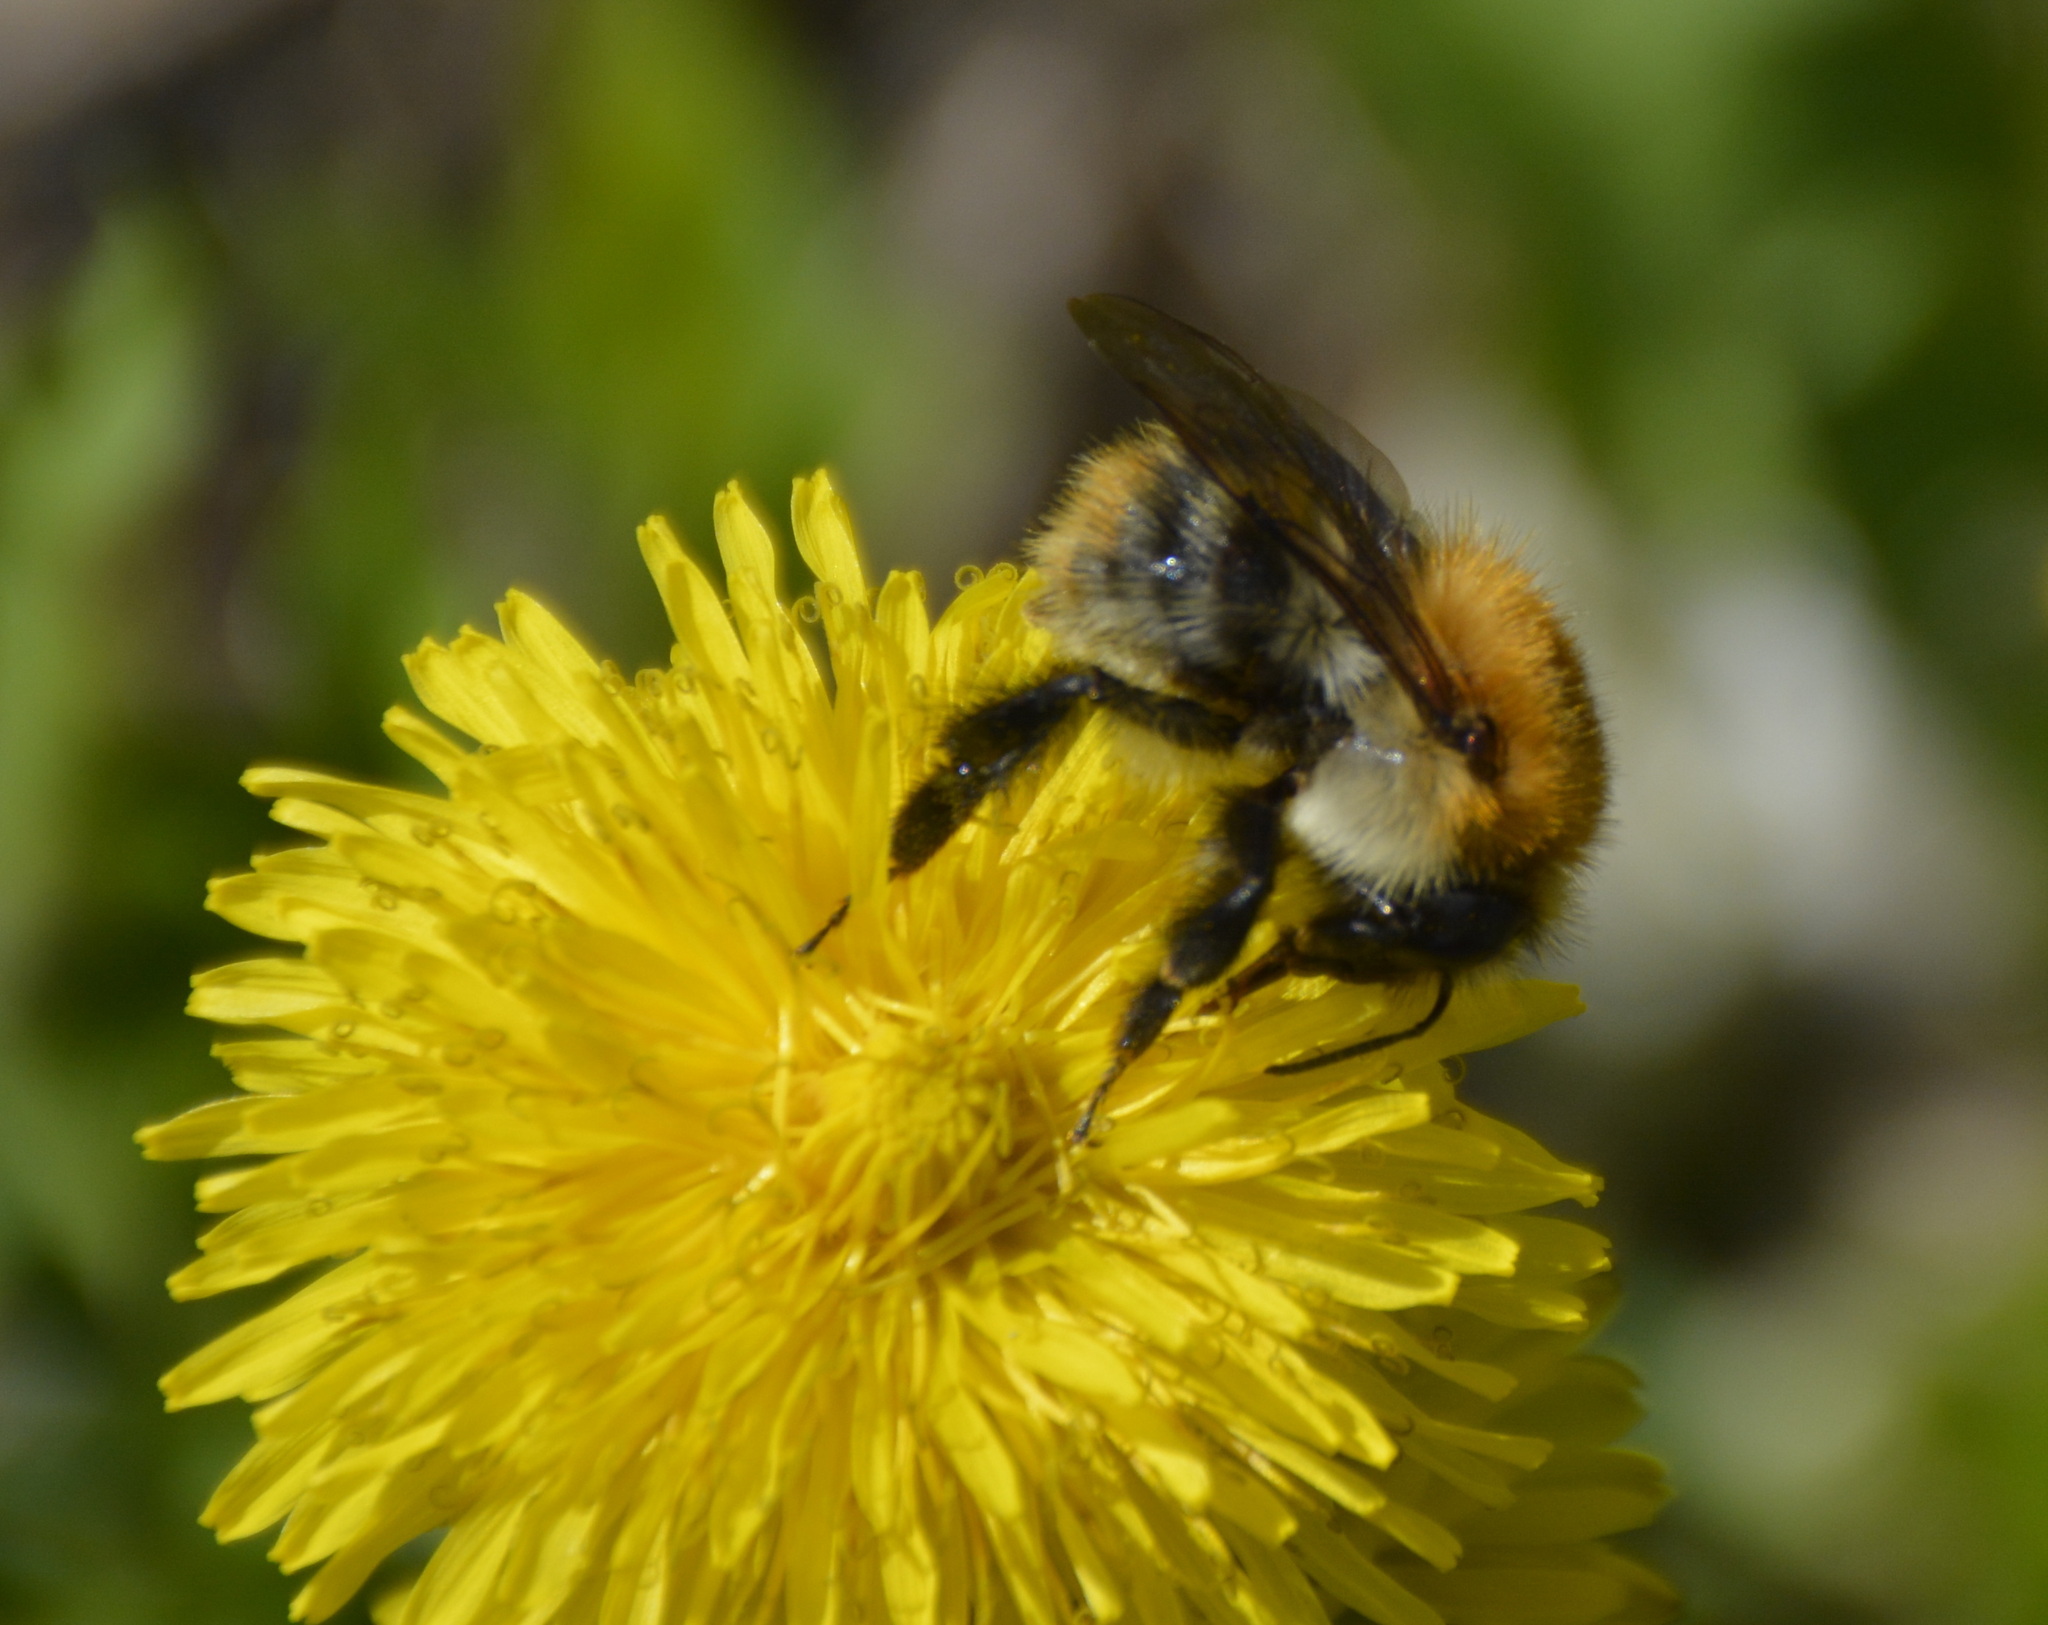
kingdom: Animalia
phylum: Arthropoda
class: Insecta
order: Hymenoptera
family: Apidae
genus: Bombus
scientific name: Bombus pascuorum
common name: Common carder bee
